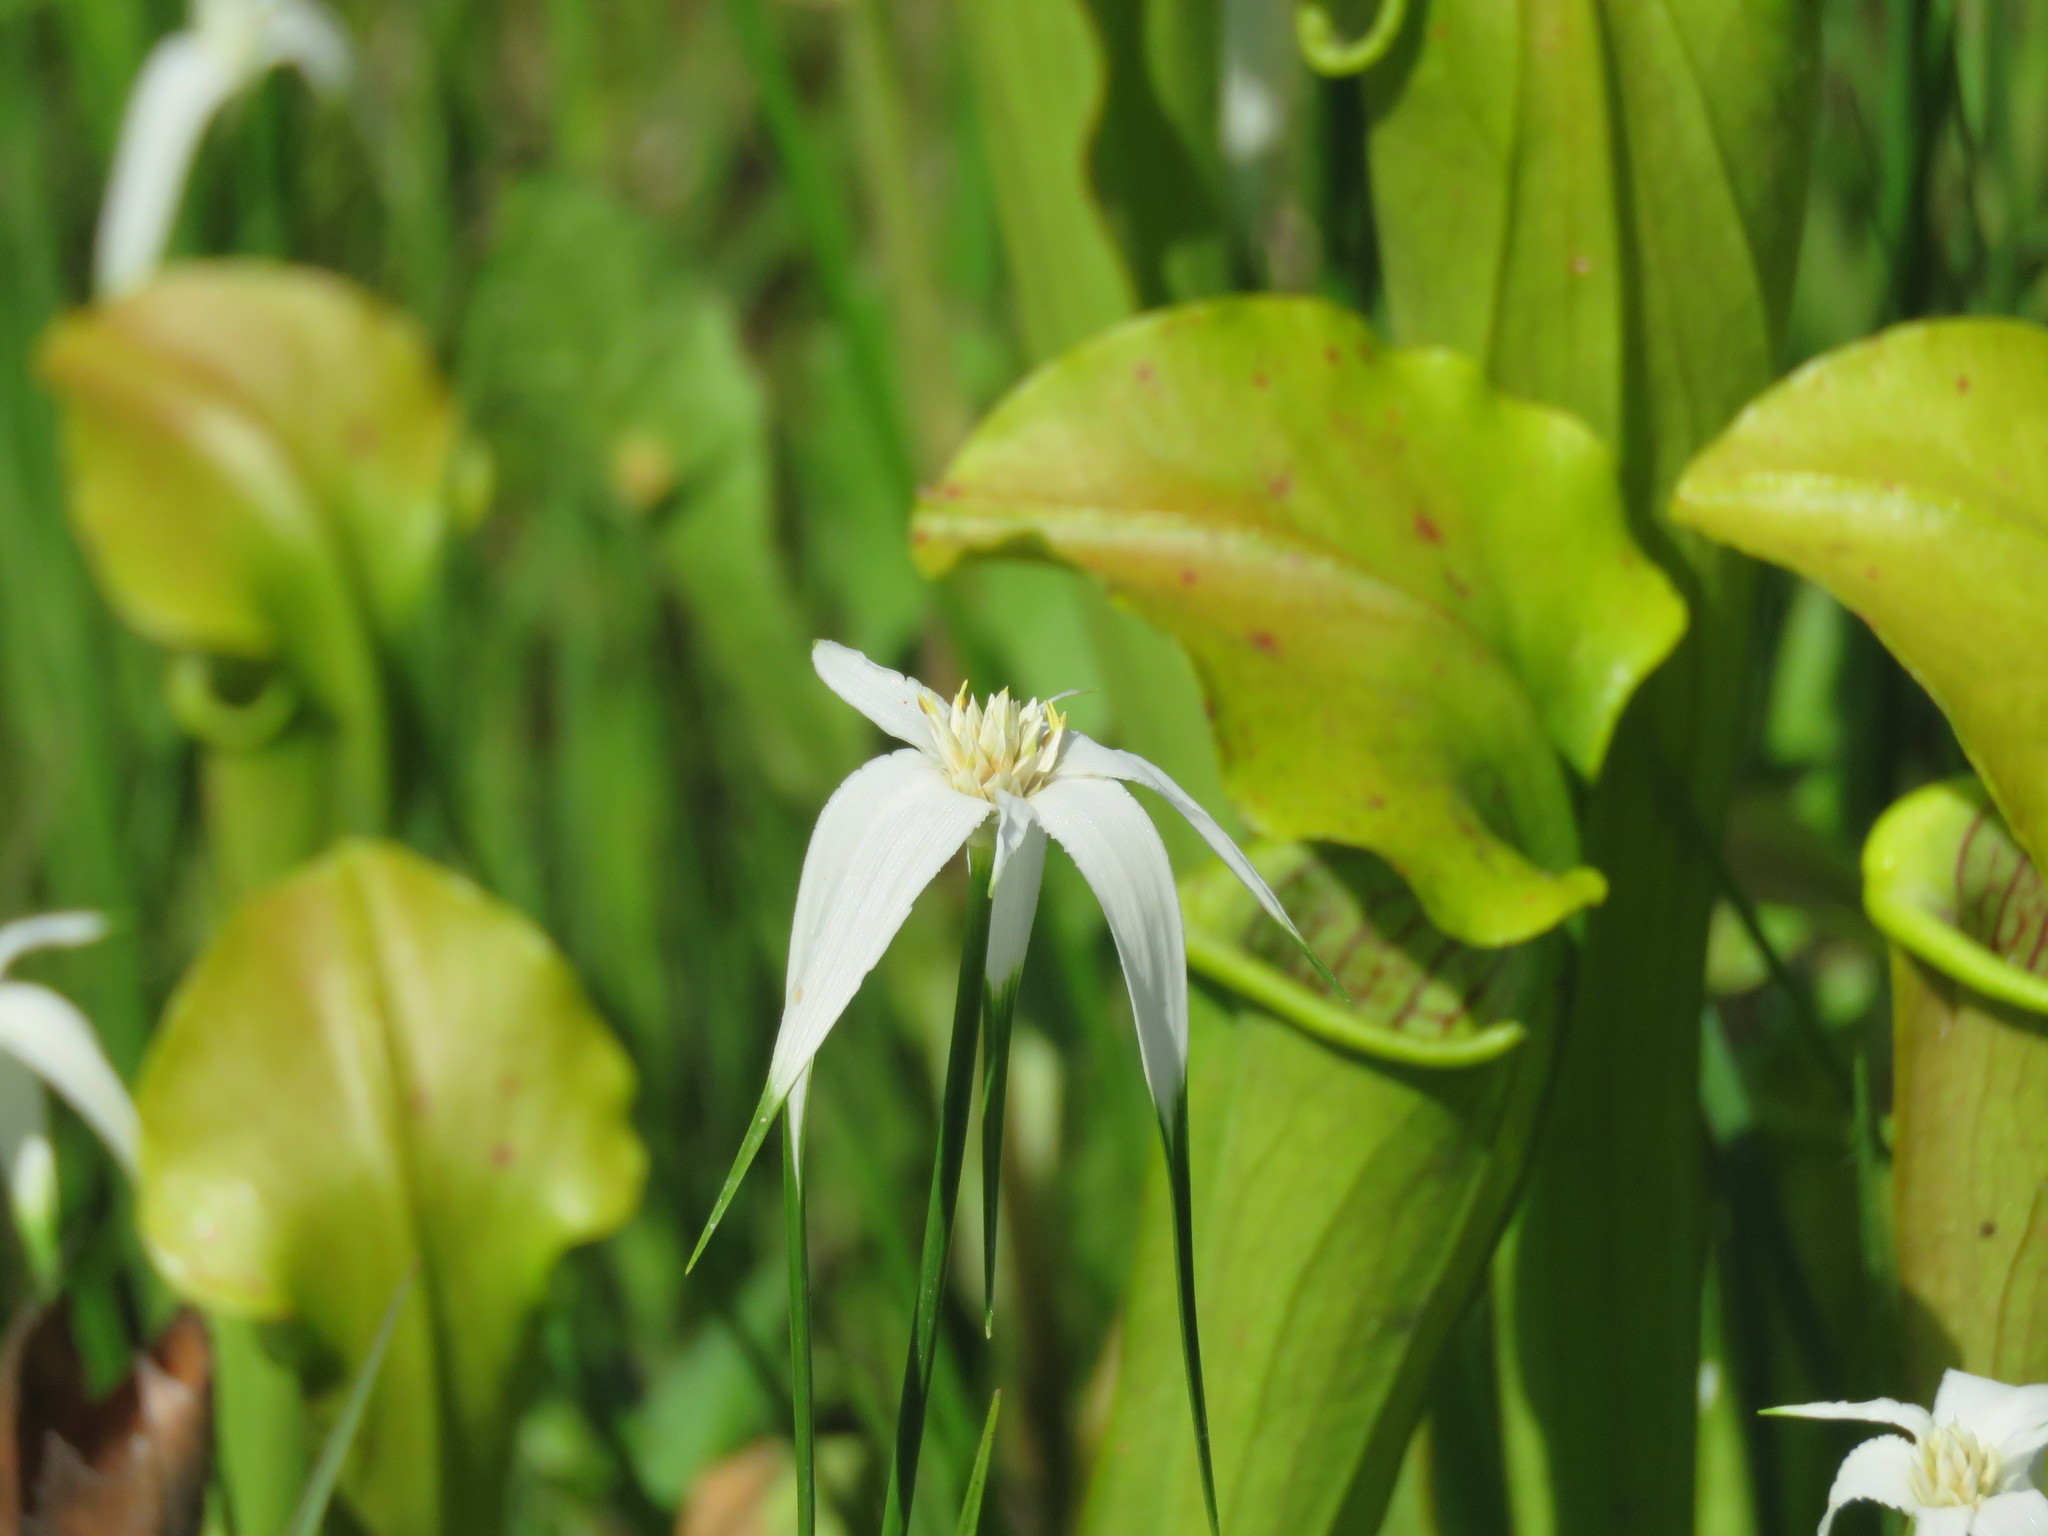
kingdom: Plantae
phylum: Tracheophyta
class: Liliopsida
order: Poales
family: Cyperaceae
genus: Rhynchospora
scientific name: Rhynchospora colorata
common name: Star sedge
